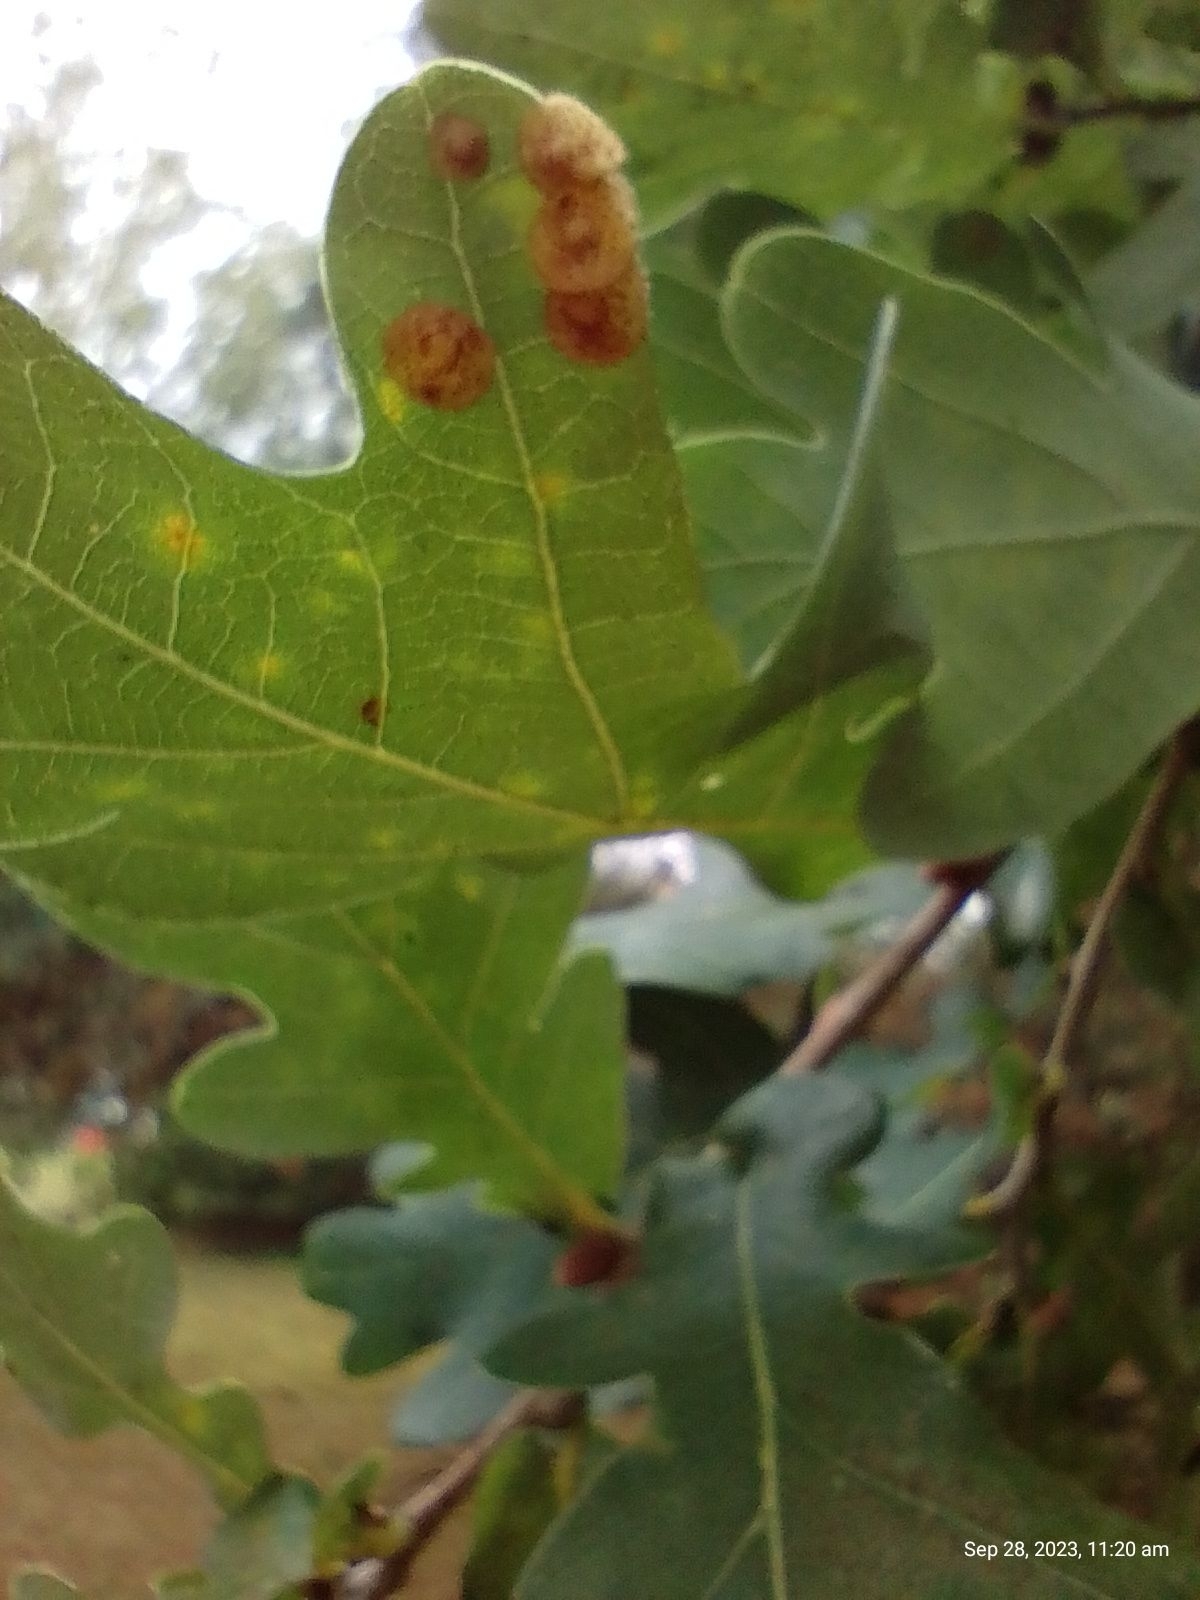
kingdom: Animalia
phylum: Arthropoda
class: Insecta
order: Hymenoptera
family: Cynipidae
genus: Neuroterus
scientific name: Neuroterus quercusbaccarum
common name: Common spangle gall
